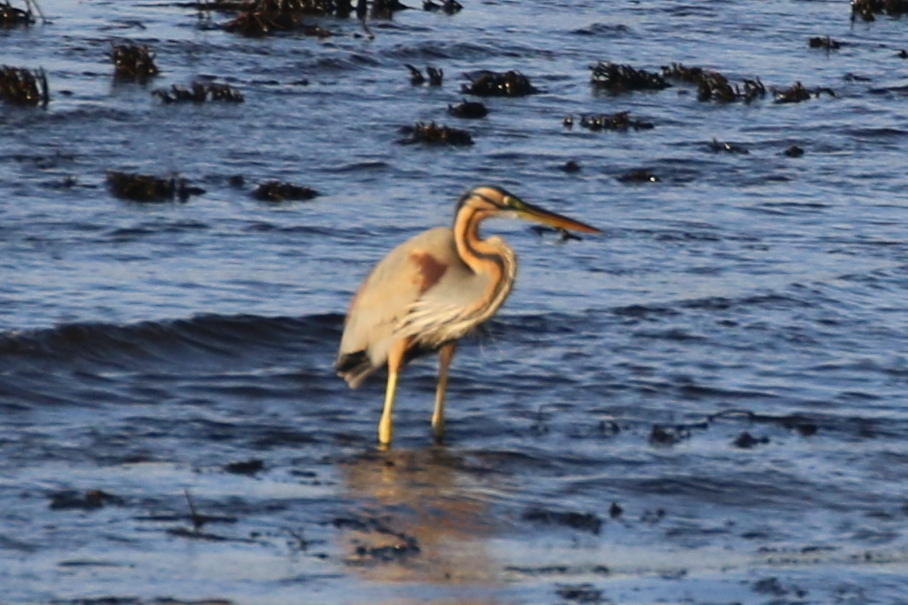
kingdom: Animalia
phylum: Chordata
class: Aves
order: Pelecaniformes
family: Ardeidae
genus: Ardea
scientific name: Ardea purpurea
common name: Purple heron
